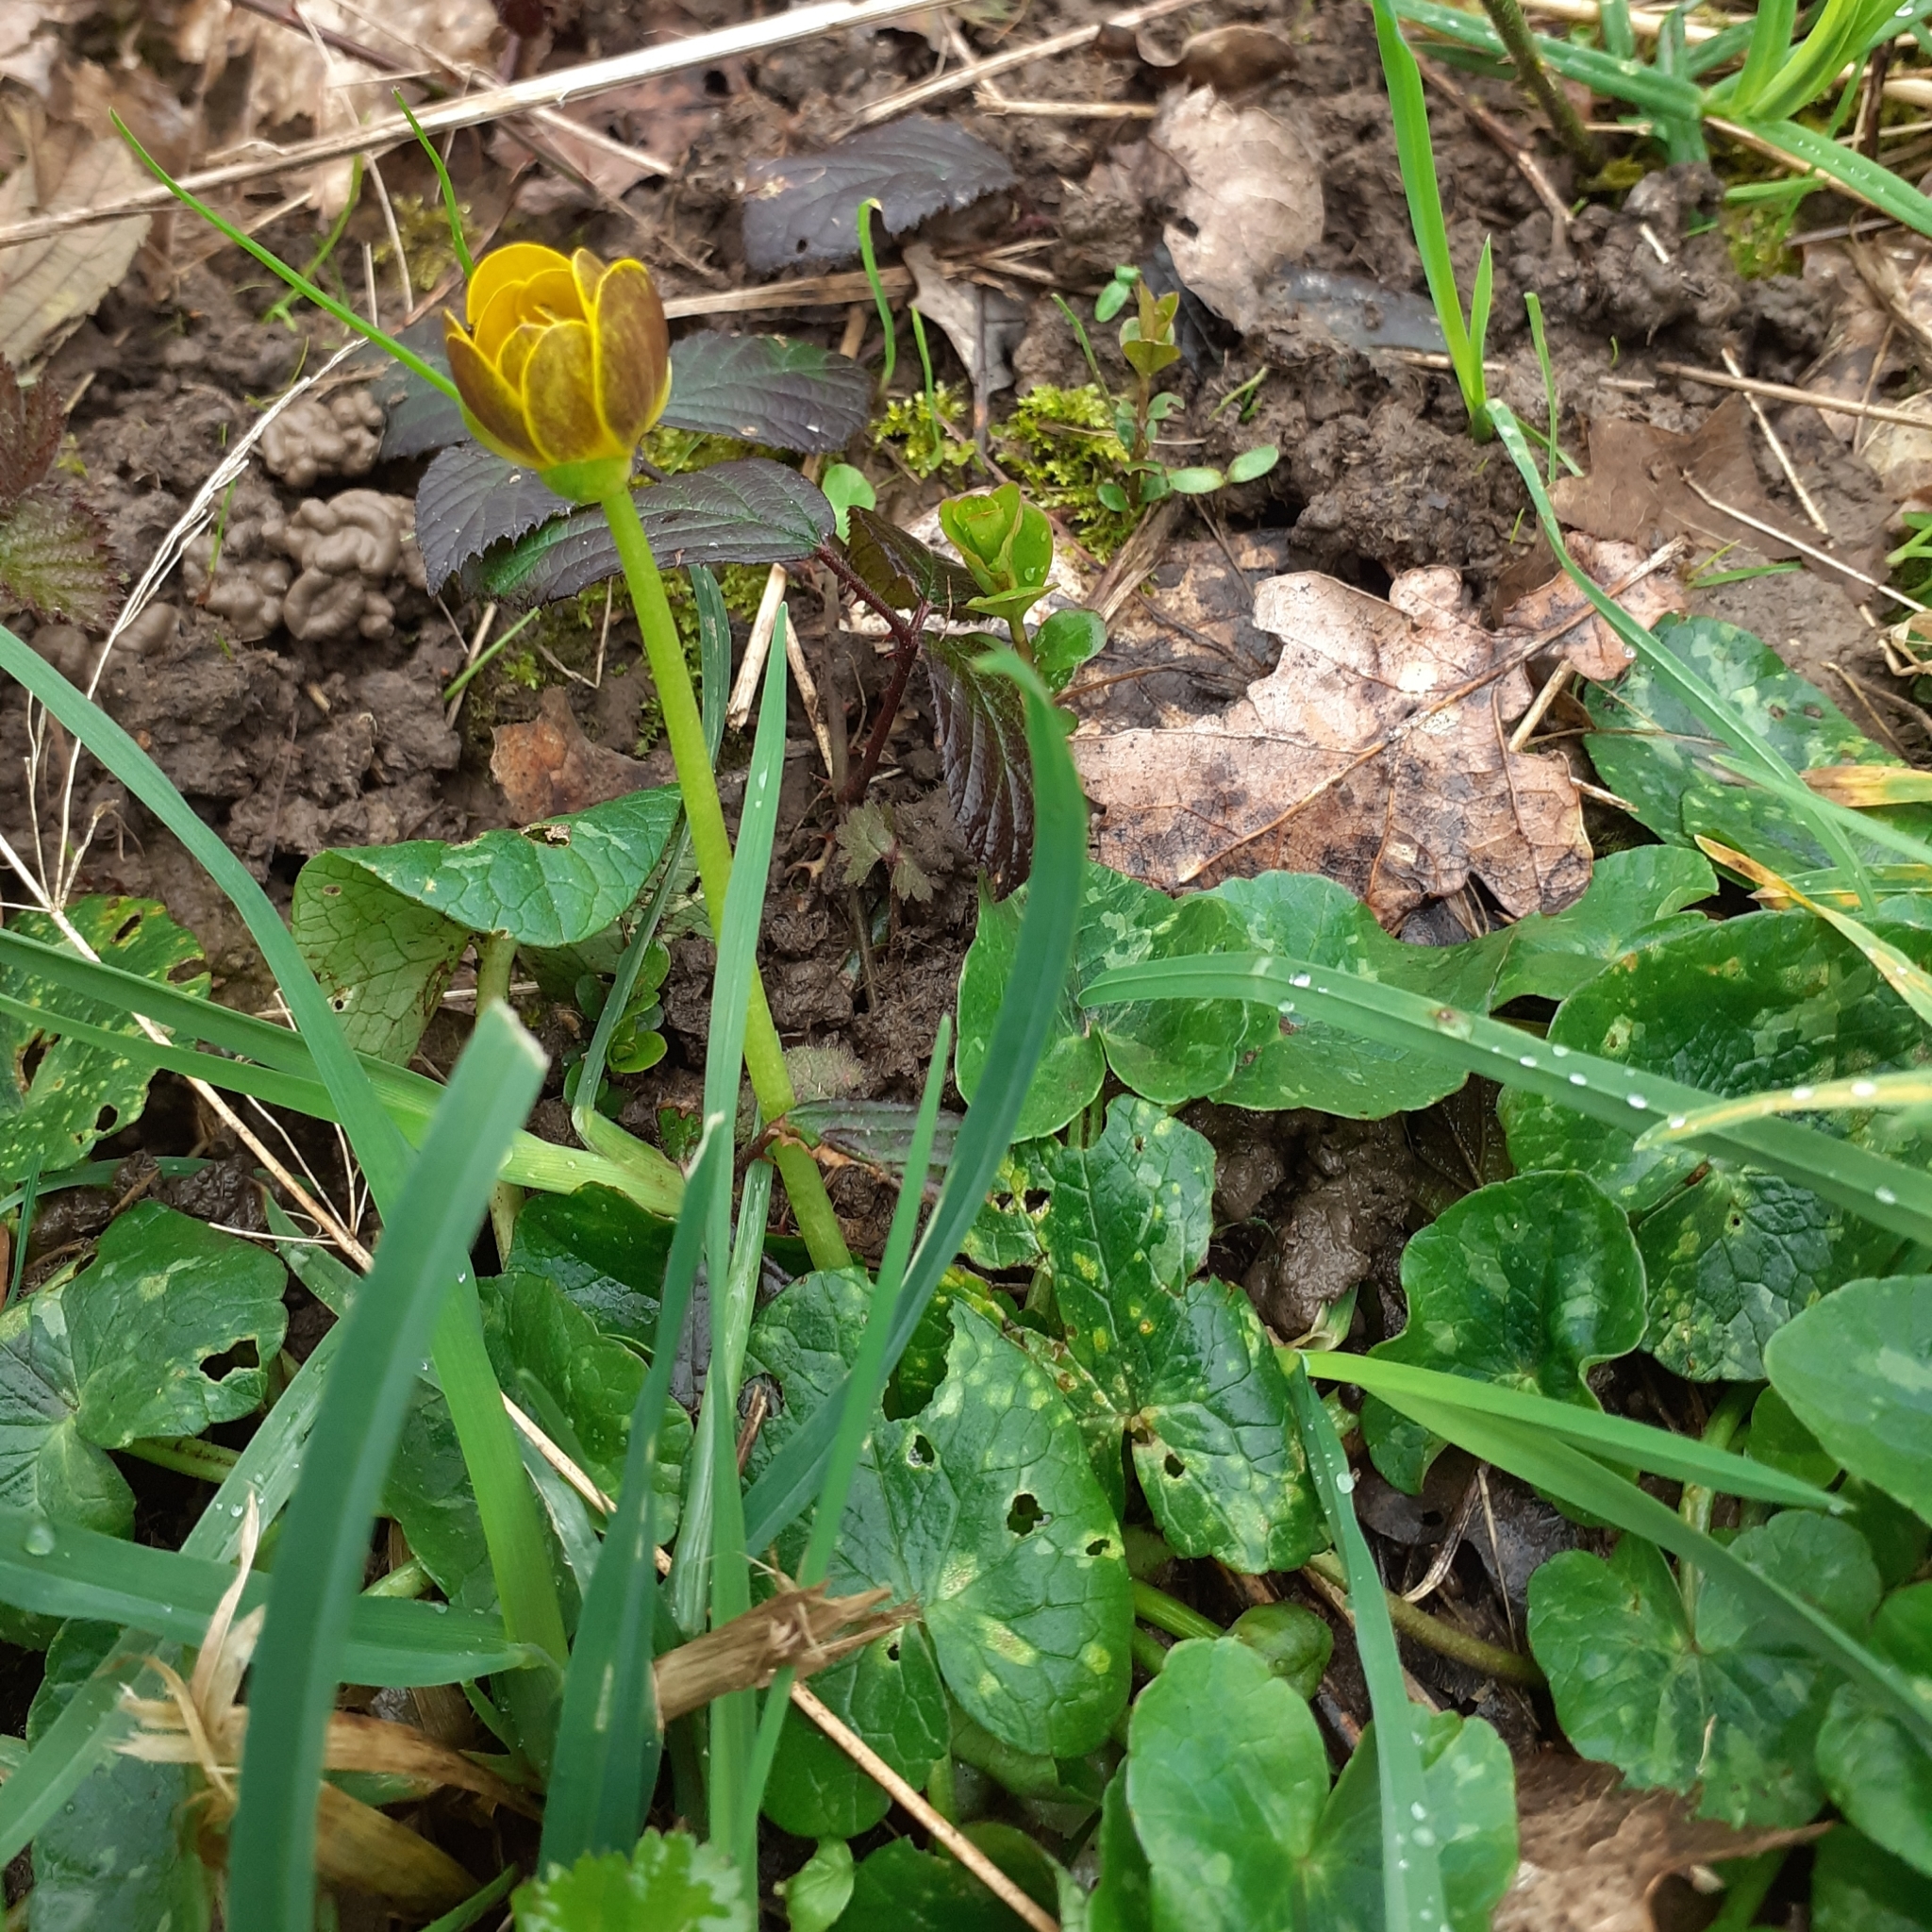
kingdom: Plantae
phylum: Tracheophyta
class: Magnoliopsida
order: Ranunculales
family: Ranunculaceae
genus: Ficaria
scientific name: Ficaria verna
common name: Lesser celandine
